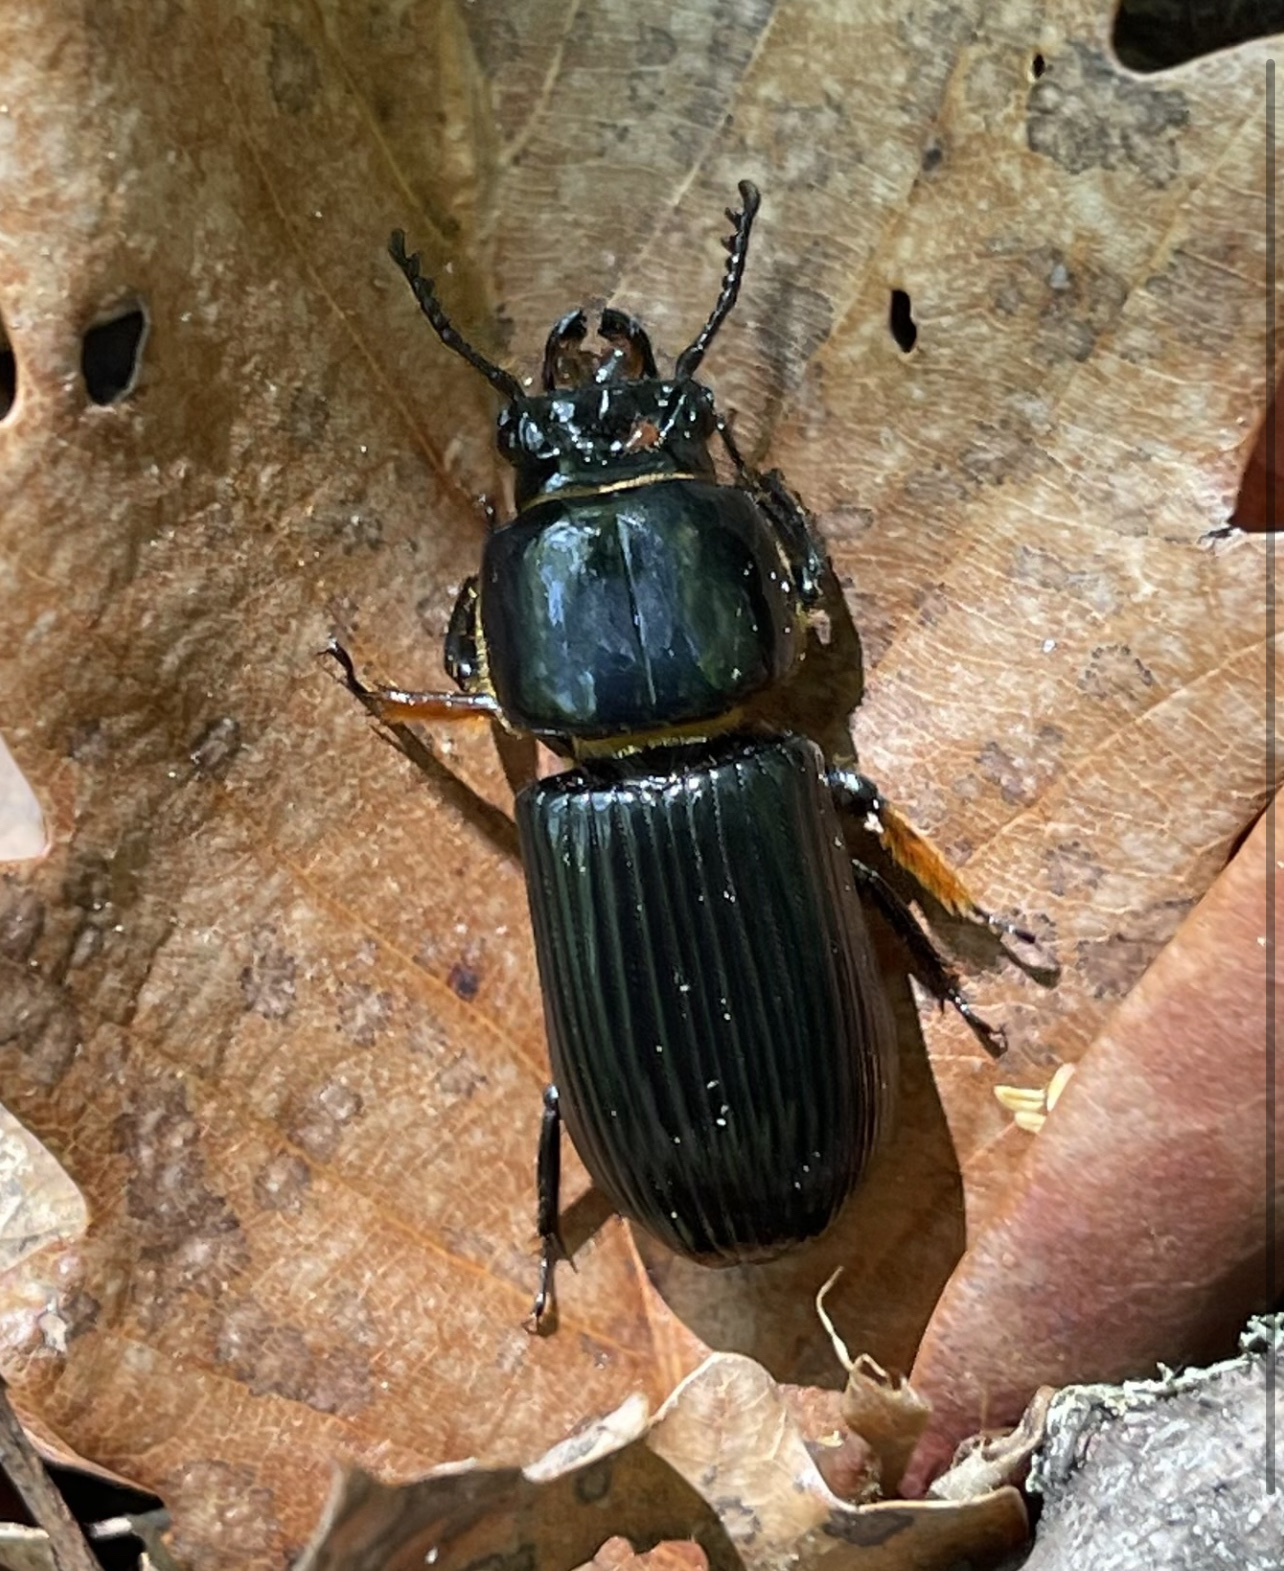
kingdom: Animalia
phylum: Arthropoda
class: Insecta
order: Coleoptera
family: Passalidae
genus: Odontotaenius
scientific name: Odontotaenius disjunctus
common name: Patent leather beetle
